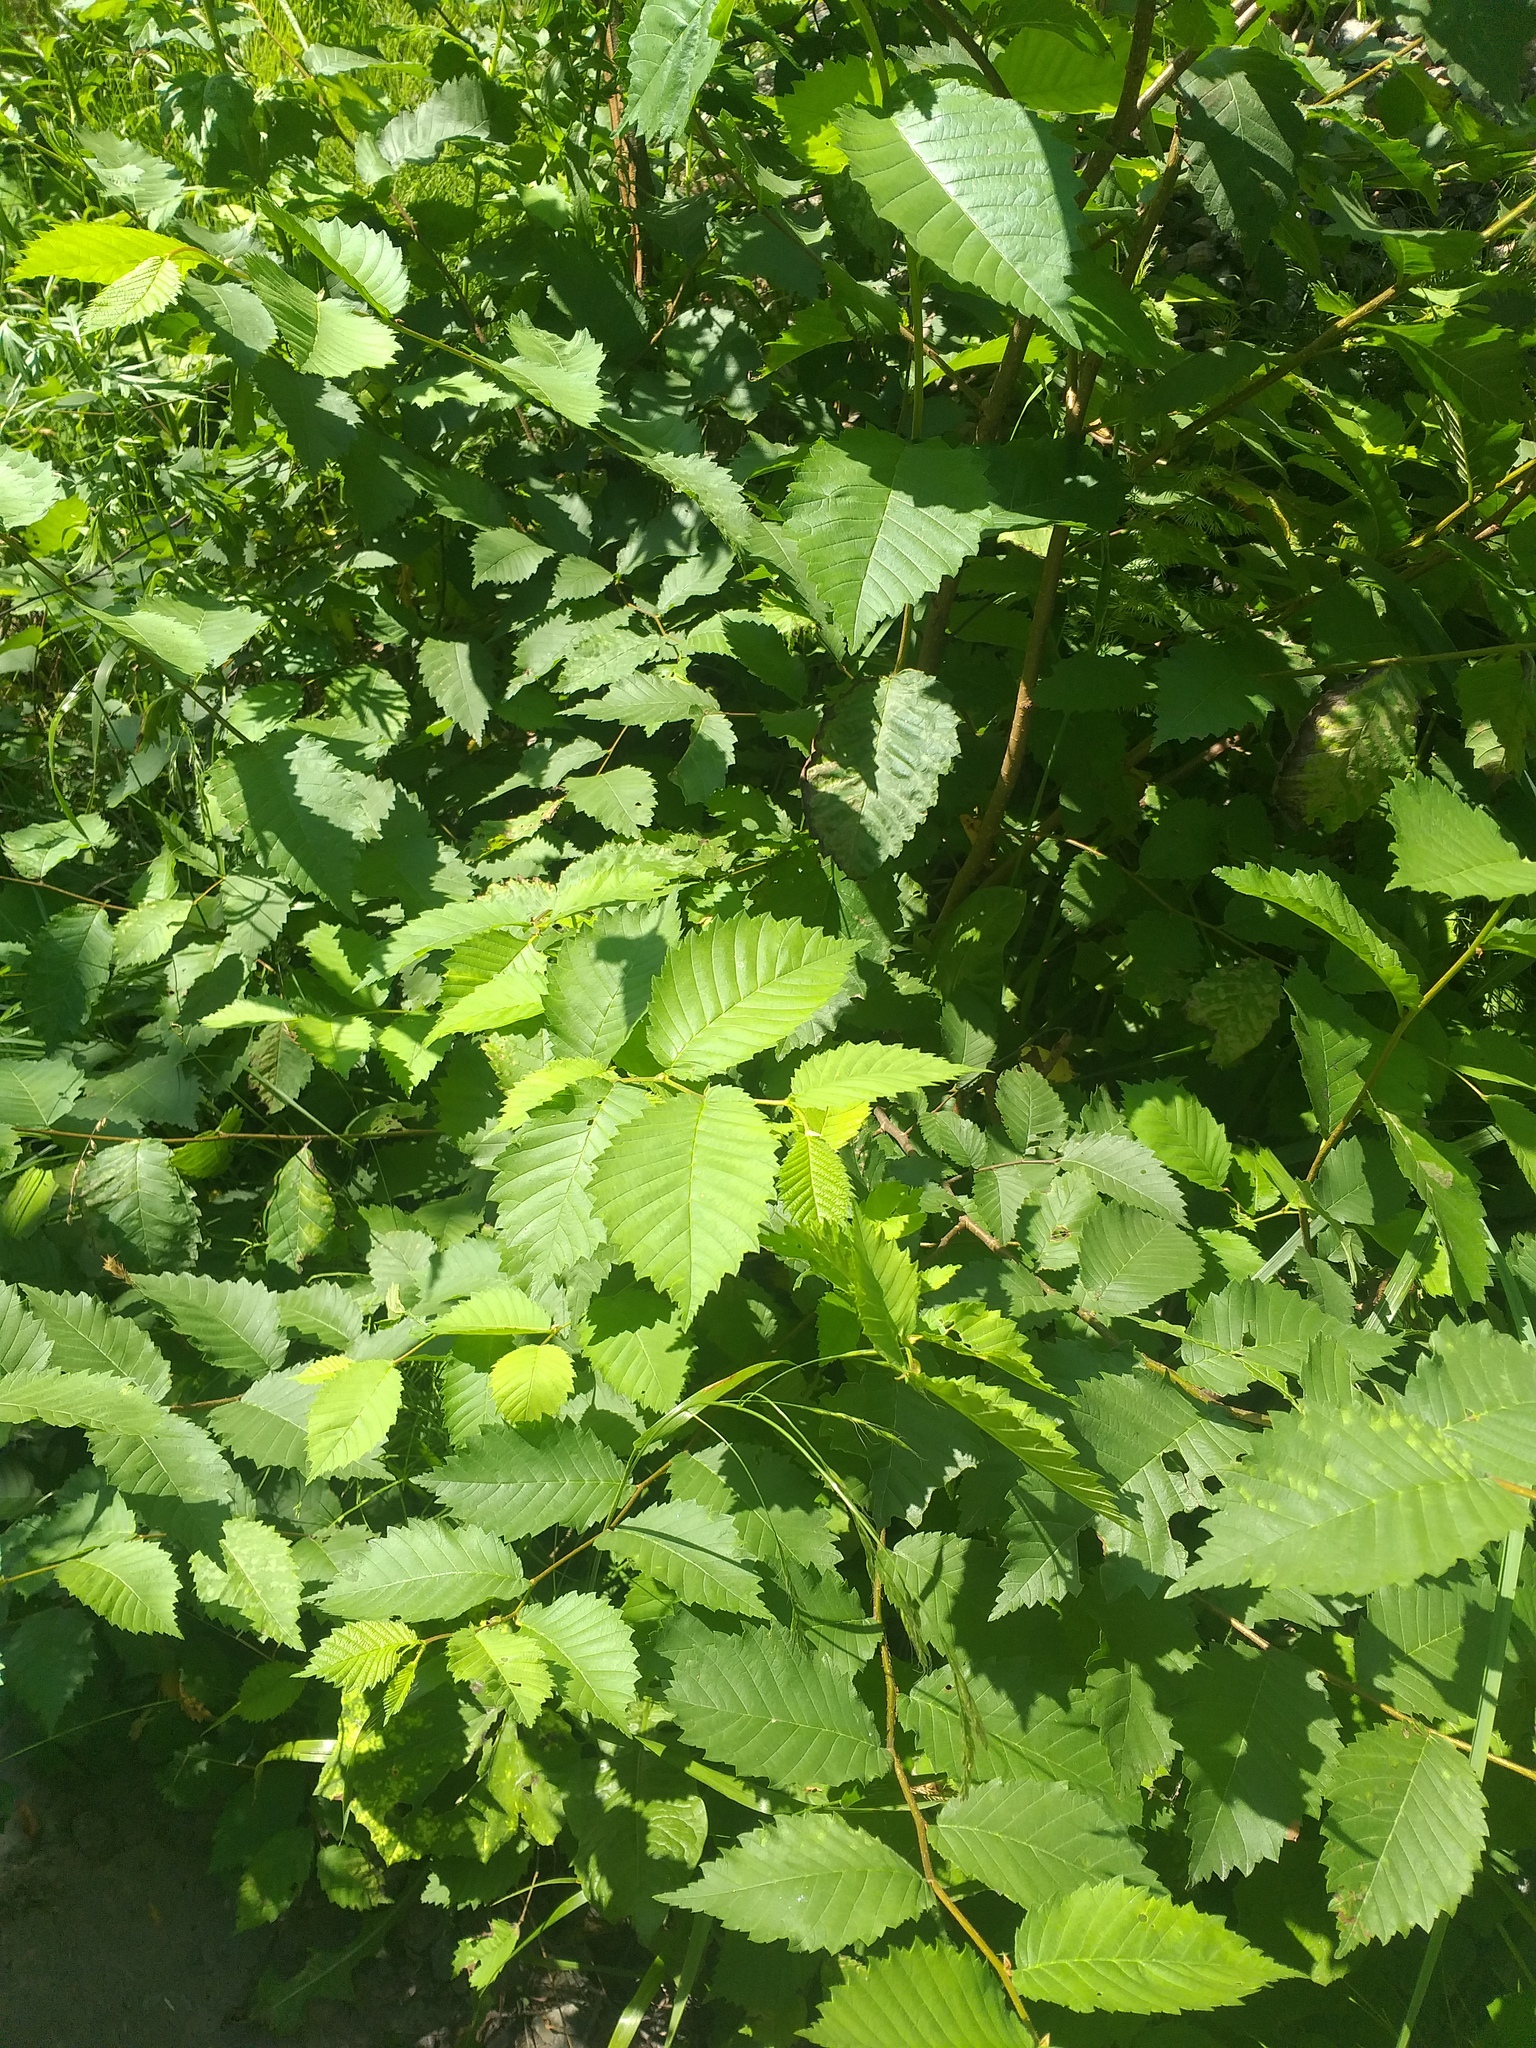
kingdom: Plantae
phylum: Tracheophyta
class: Magnoliopsida
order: Rosales
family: Ulmaceae
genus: Ulmus
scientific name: Ulmus laevis
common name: European white-elm
